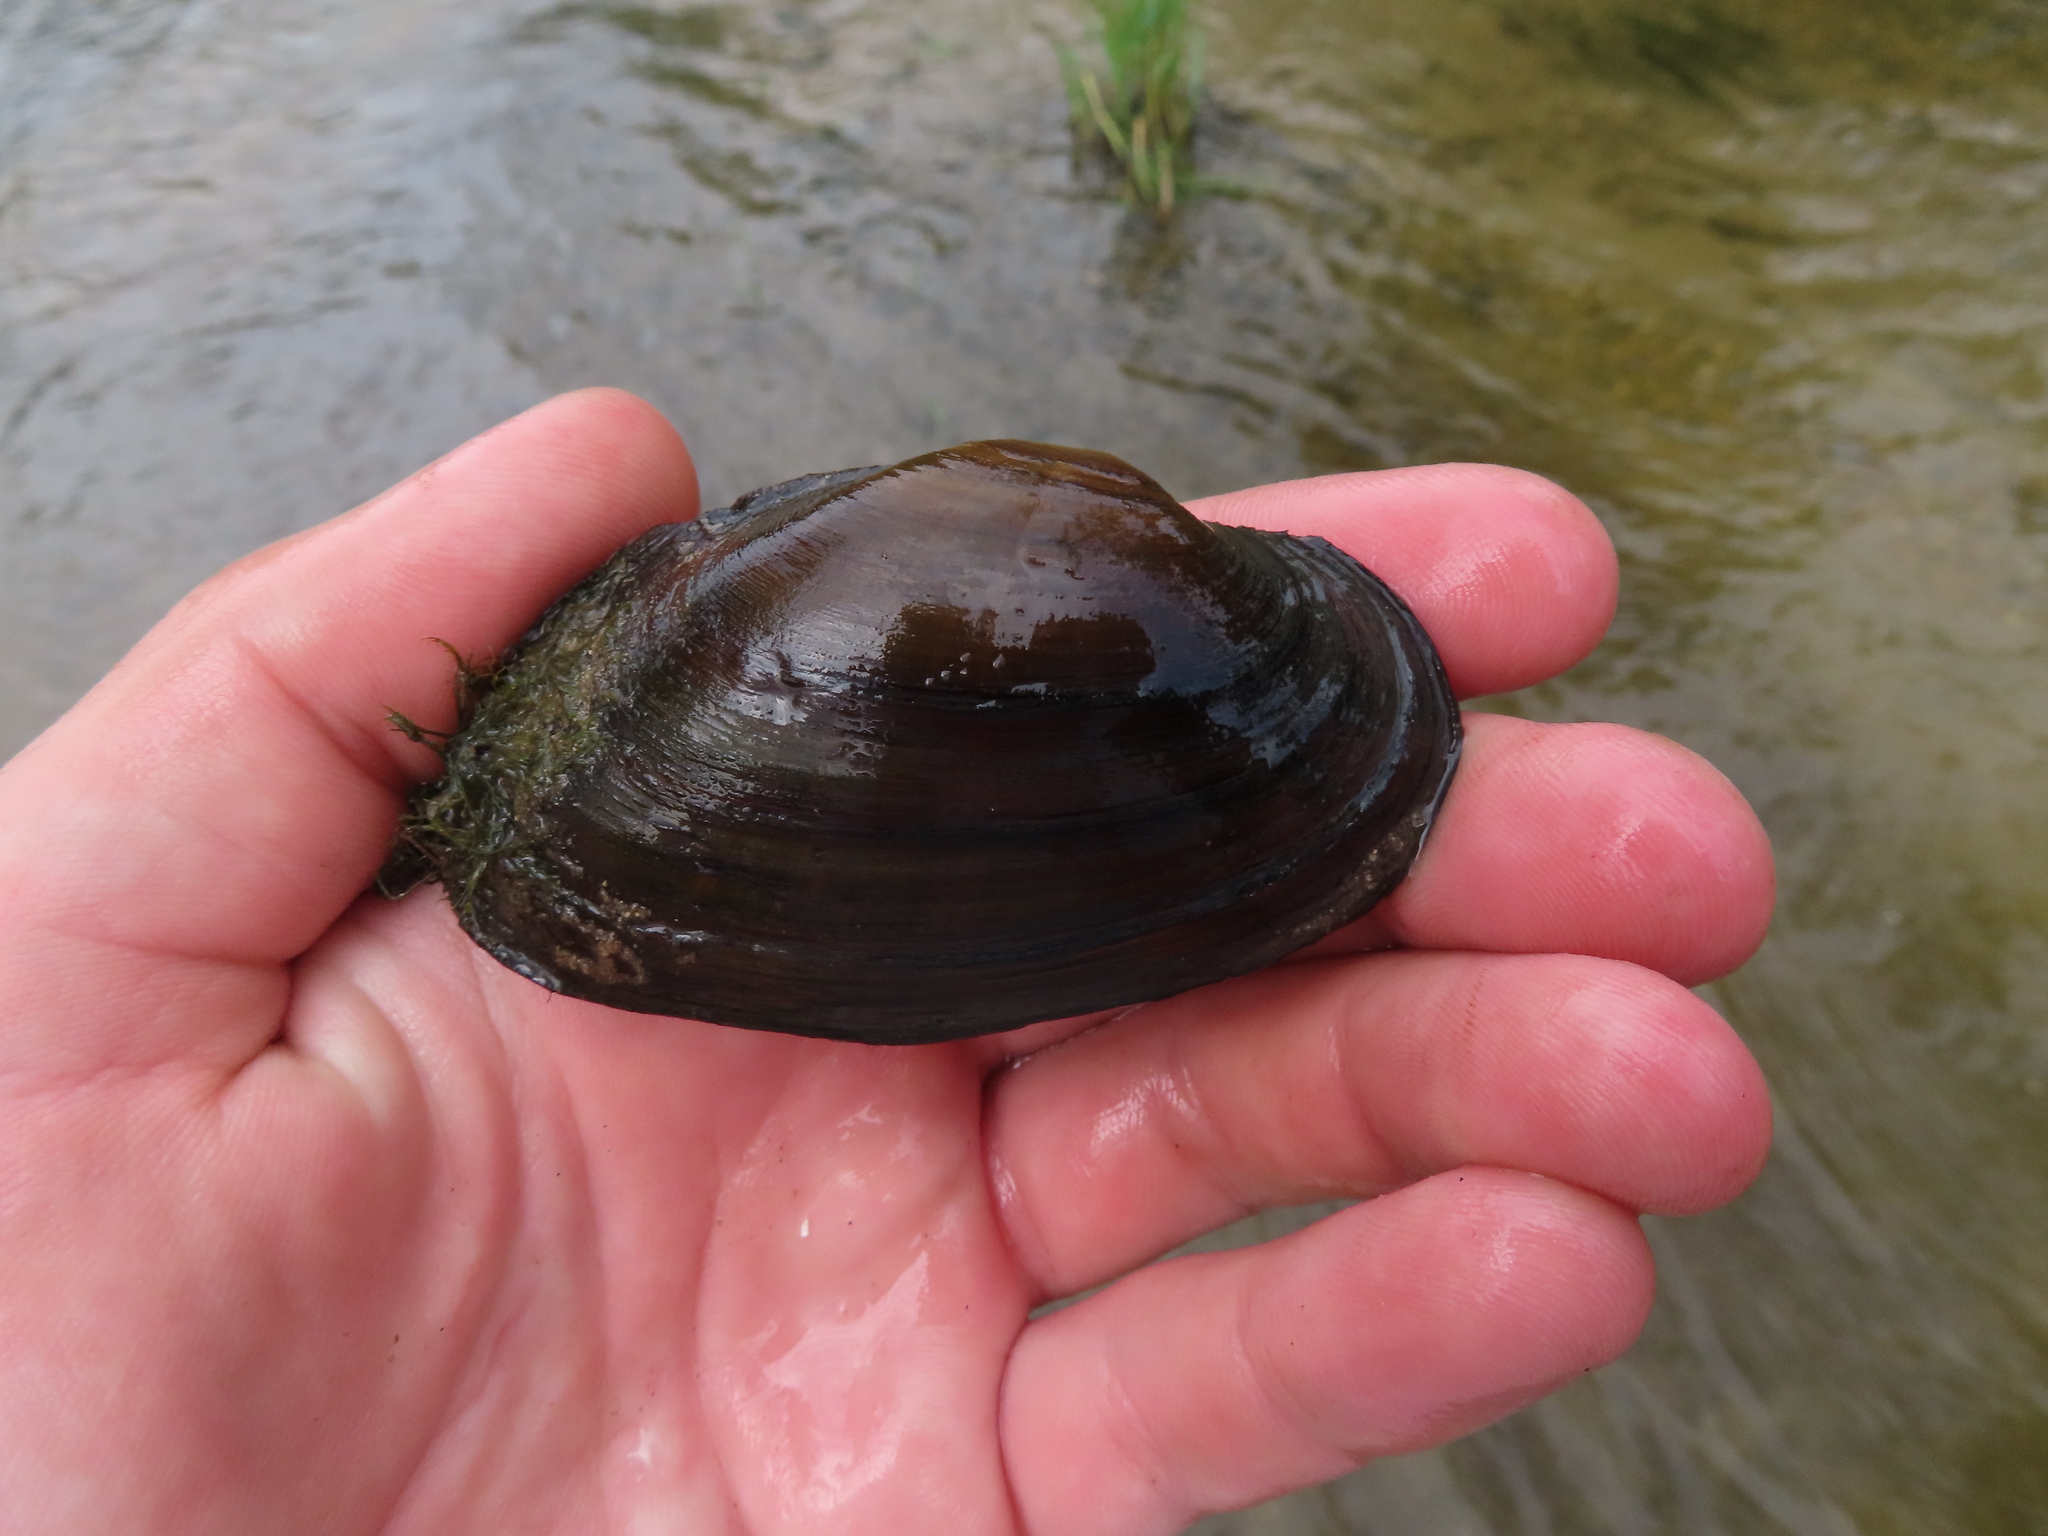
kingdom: Animalia
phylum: Mollusca
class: Bivalvia
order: Unionida
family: Unionidae
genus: Strophitus
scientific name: Strophitus undulatus
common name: Creeper
